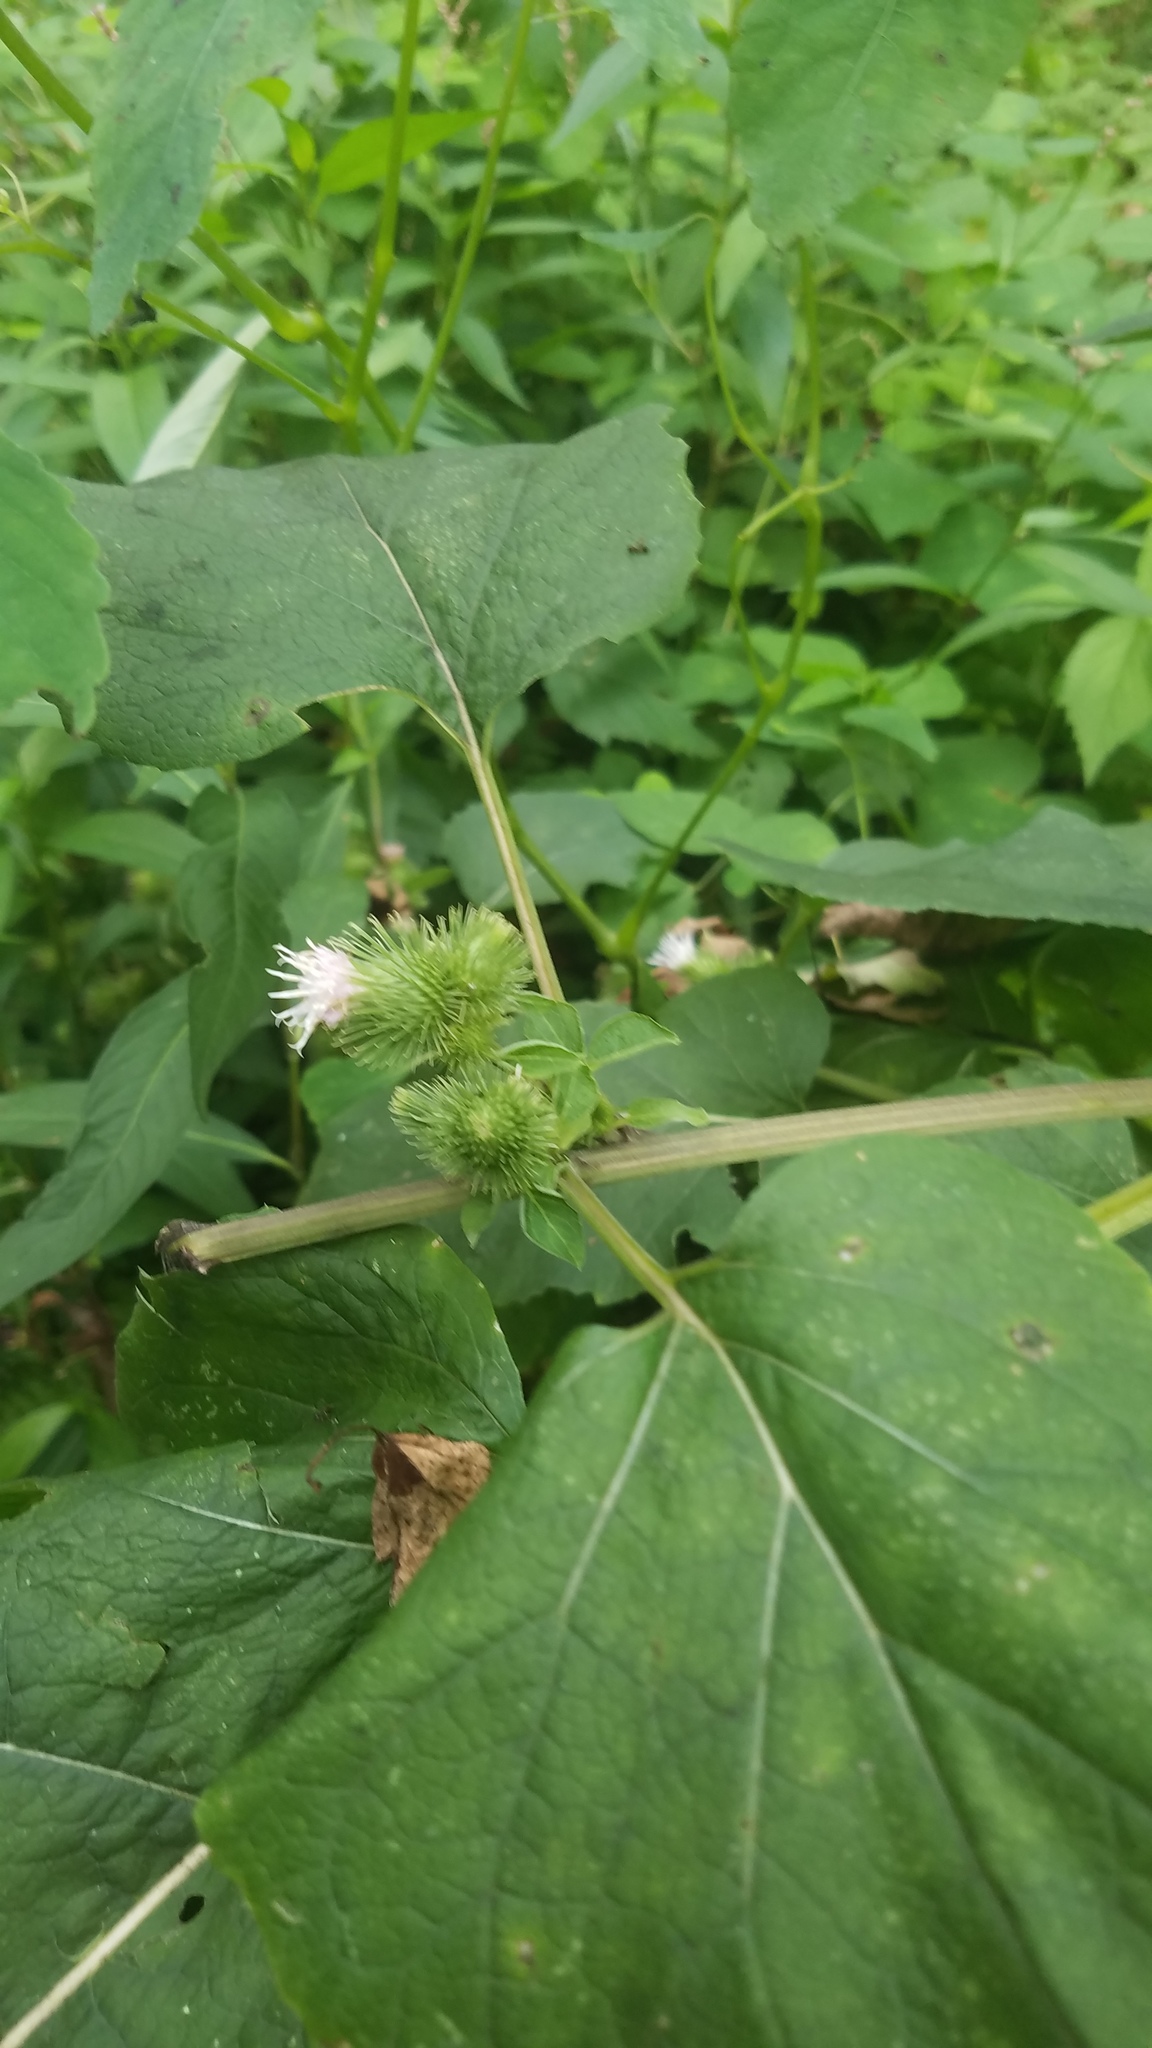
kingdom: Plantae
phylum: Tracheophyta
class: Magnoliopsida
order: Asterales
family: Asteraceae
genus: Arctium
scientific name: Arctium minus
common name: Lesser burdock
